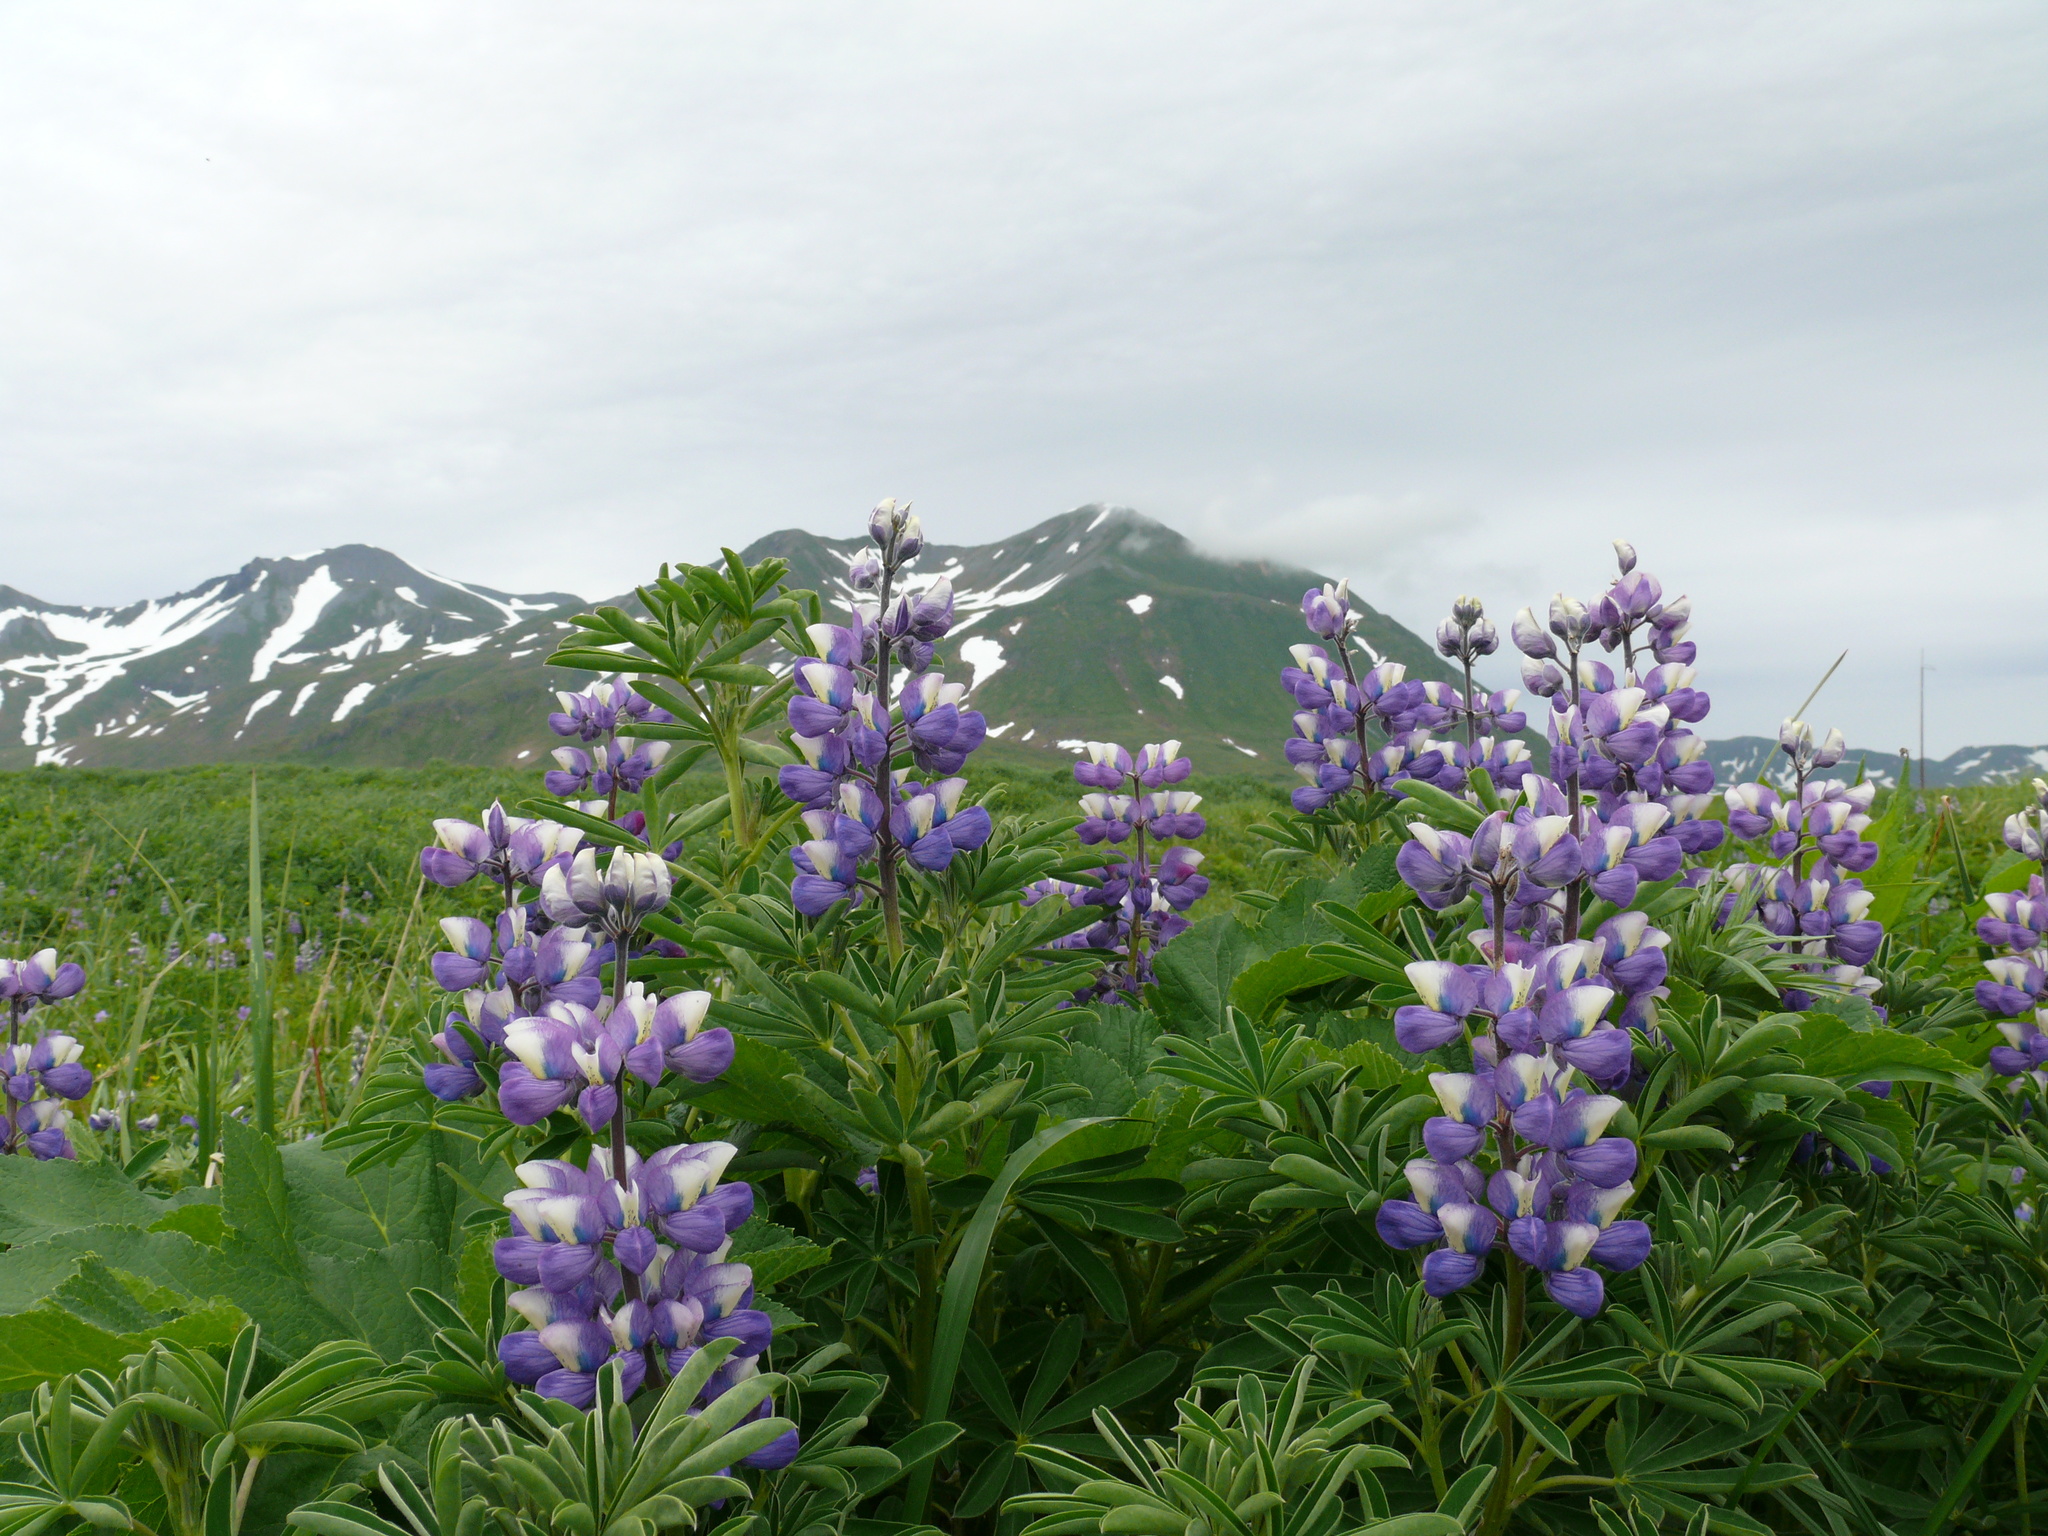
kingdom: Plantae
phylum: Tracheophyta
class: Magnoliopsida
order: Fabales
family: Fabaceae
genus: Lupinus
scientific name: Lupinus nootkatensis
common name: Nootka lupine
